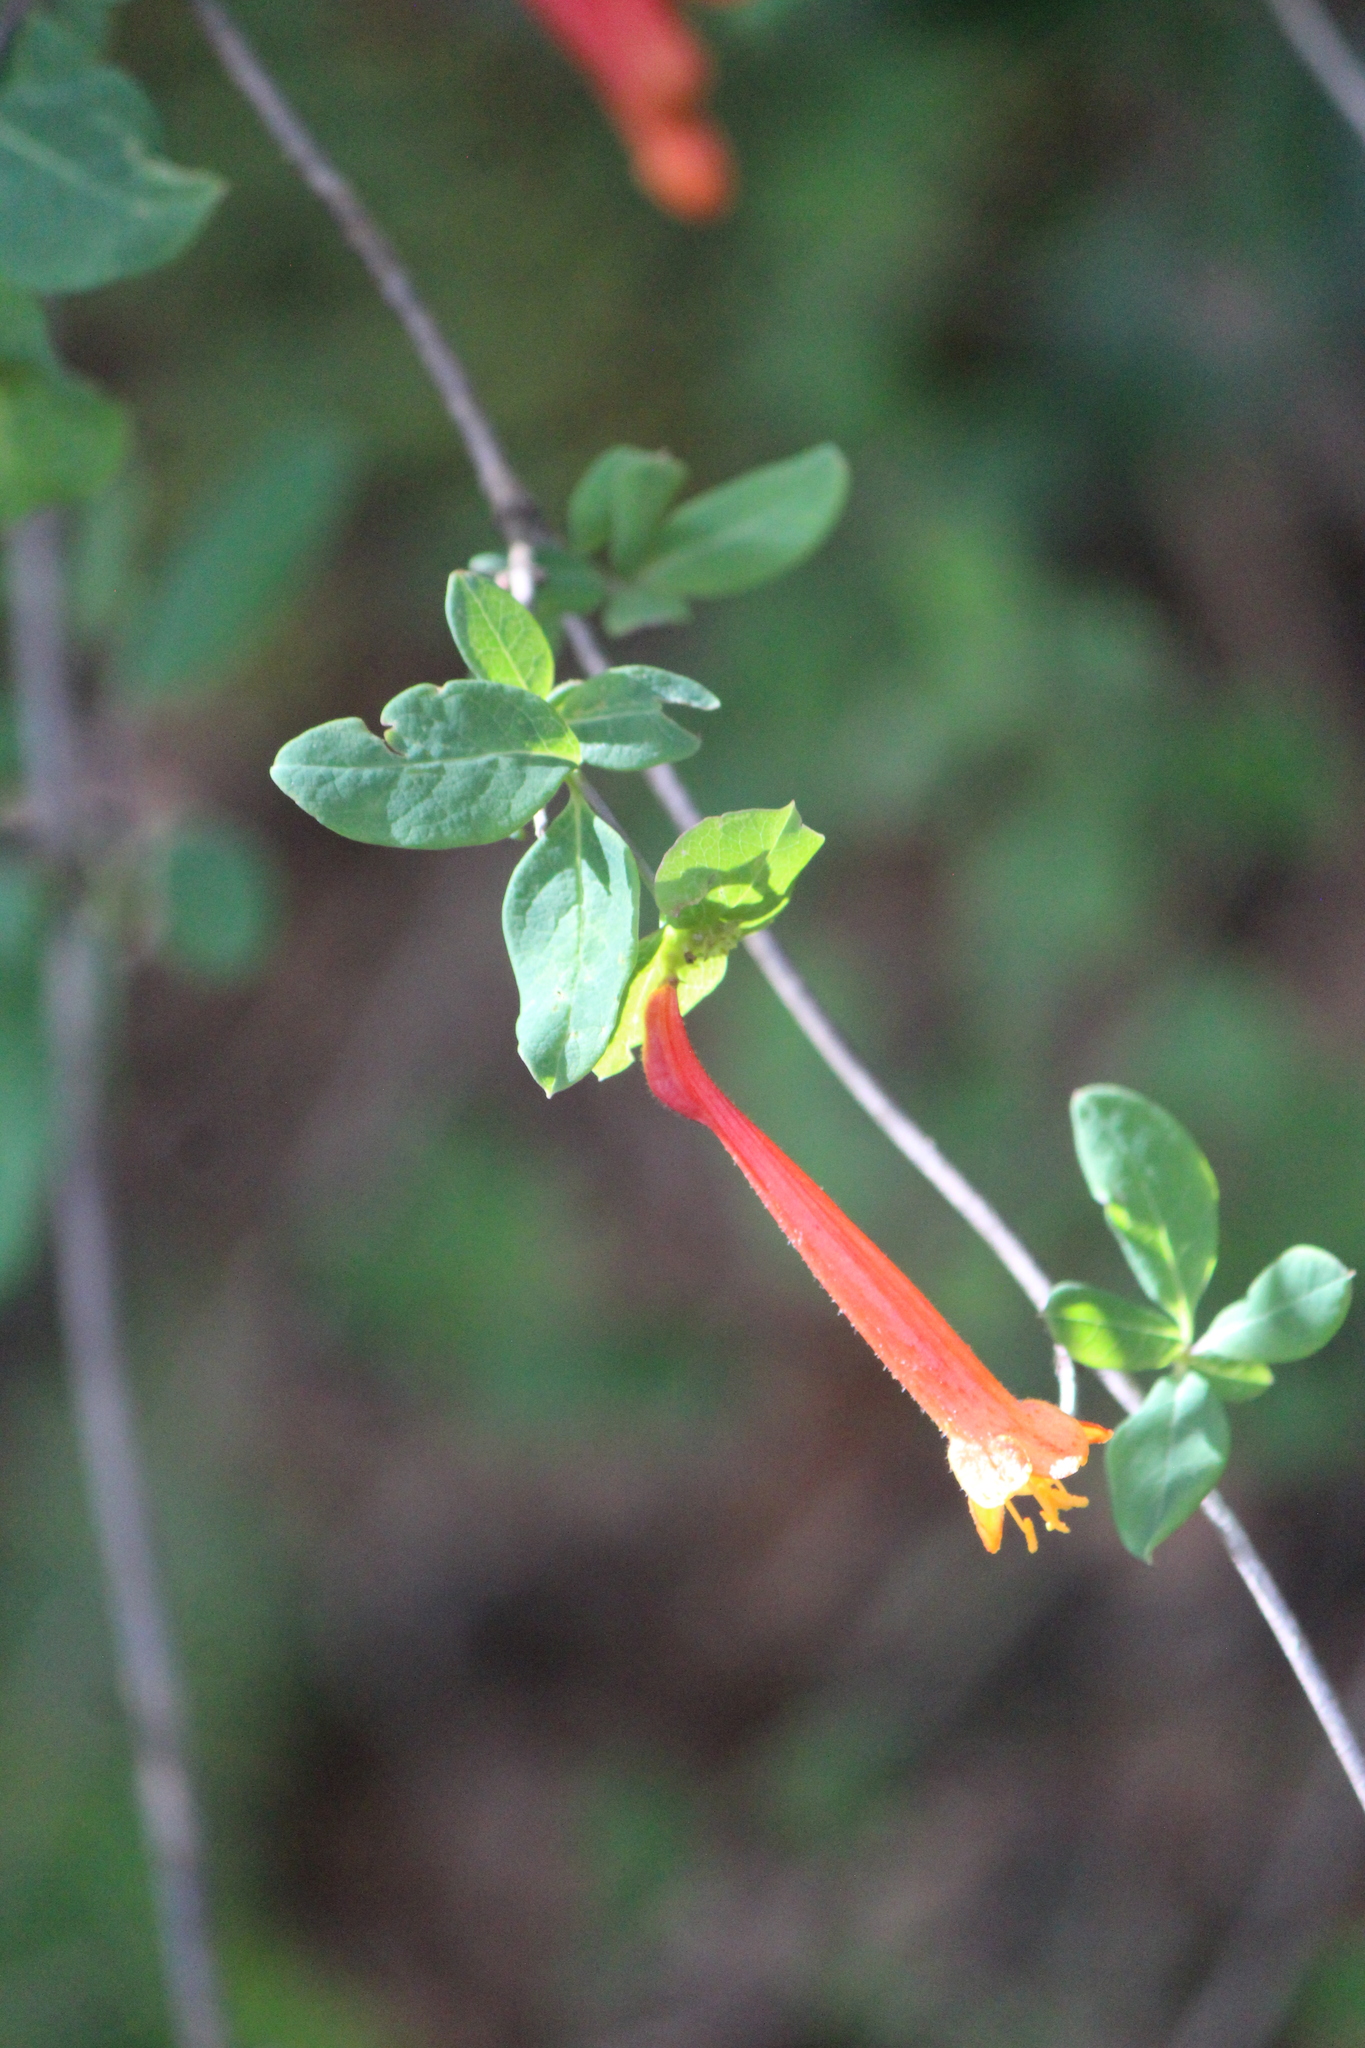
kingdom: Plantae
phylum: Tracheophyta
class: Magnoliopsida
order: Dipsacales
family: Caprifoliaceae
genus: Lonicera
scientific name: Lonicera pilosa
